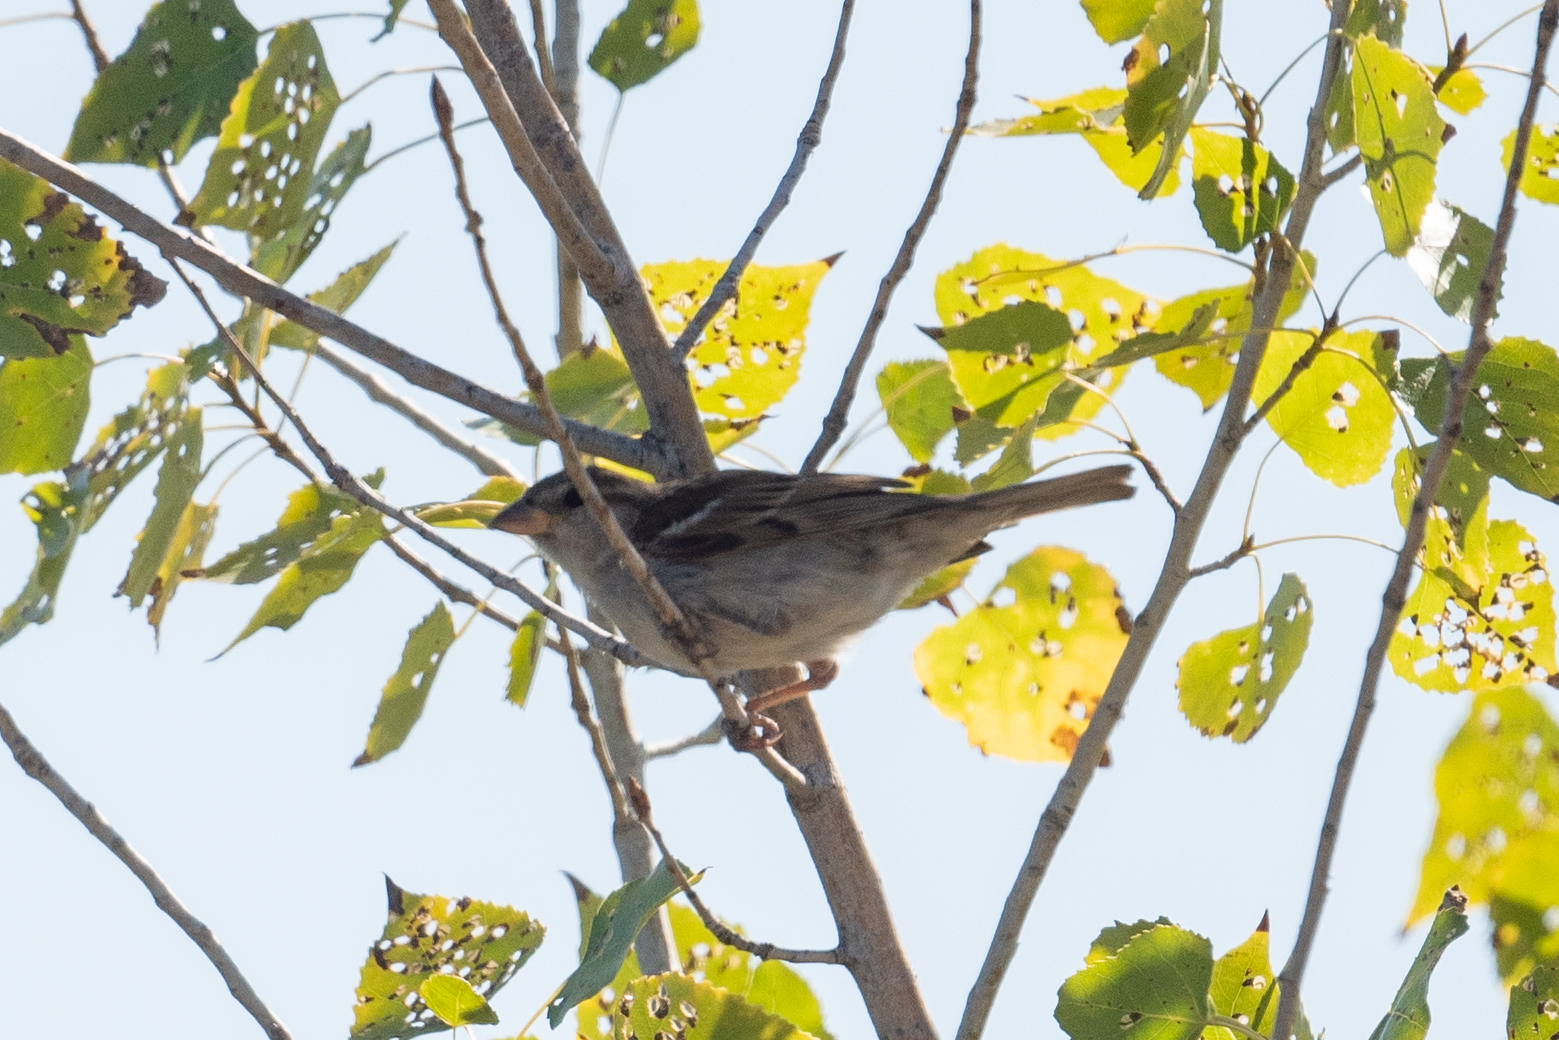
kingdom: Animalia
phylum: Chordata
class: Aves
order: Passeriformes
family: Passeridae
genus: Passer
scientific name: Passer domesticus
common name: House sparrow
